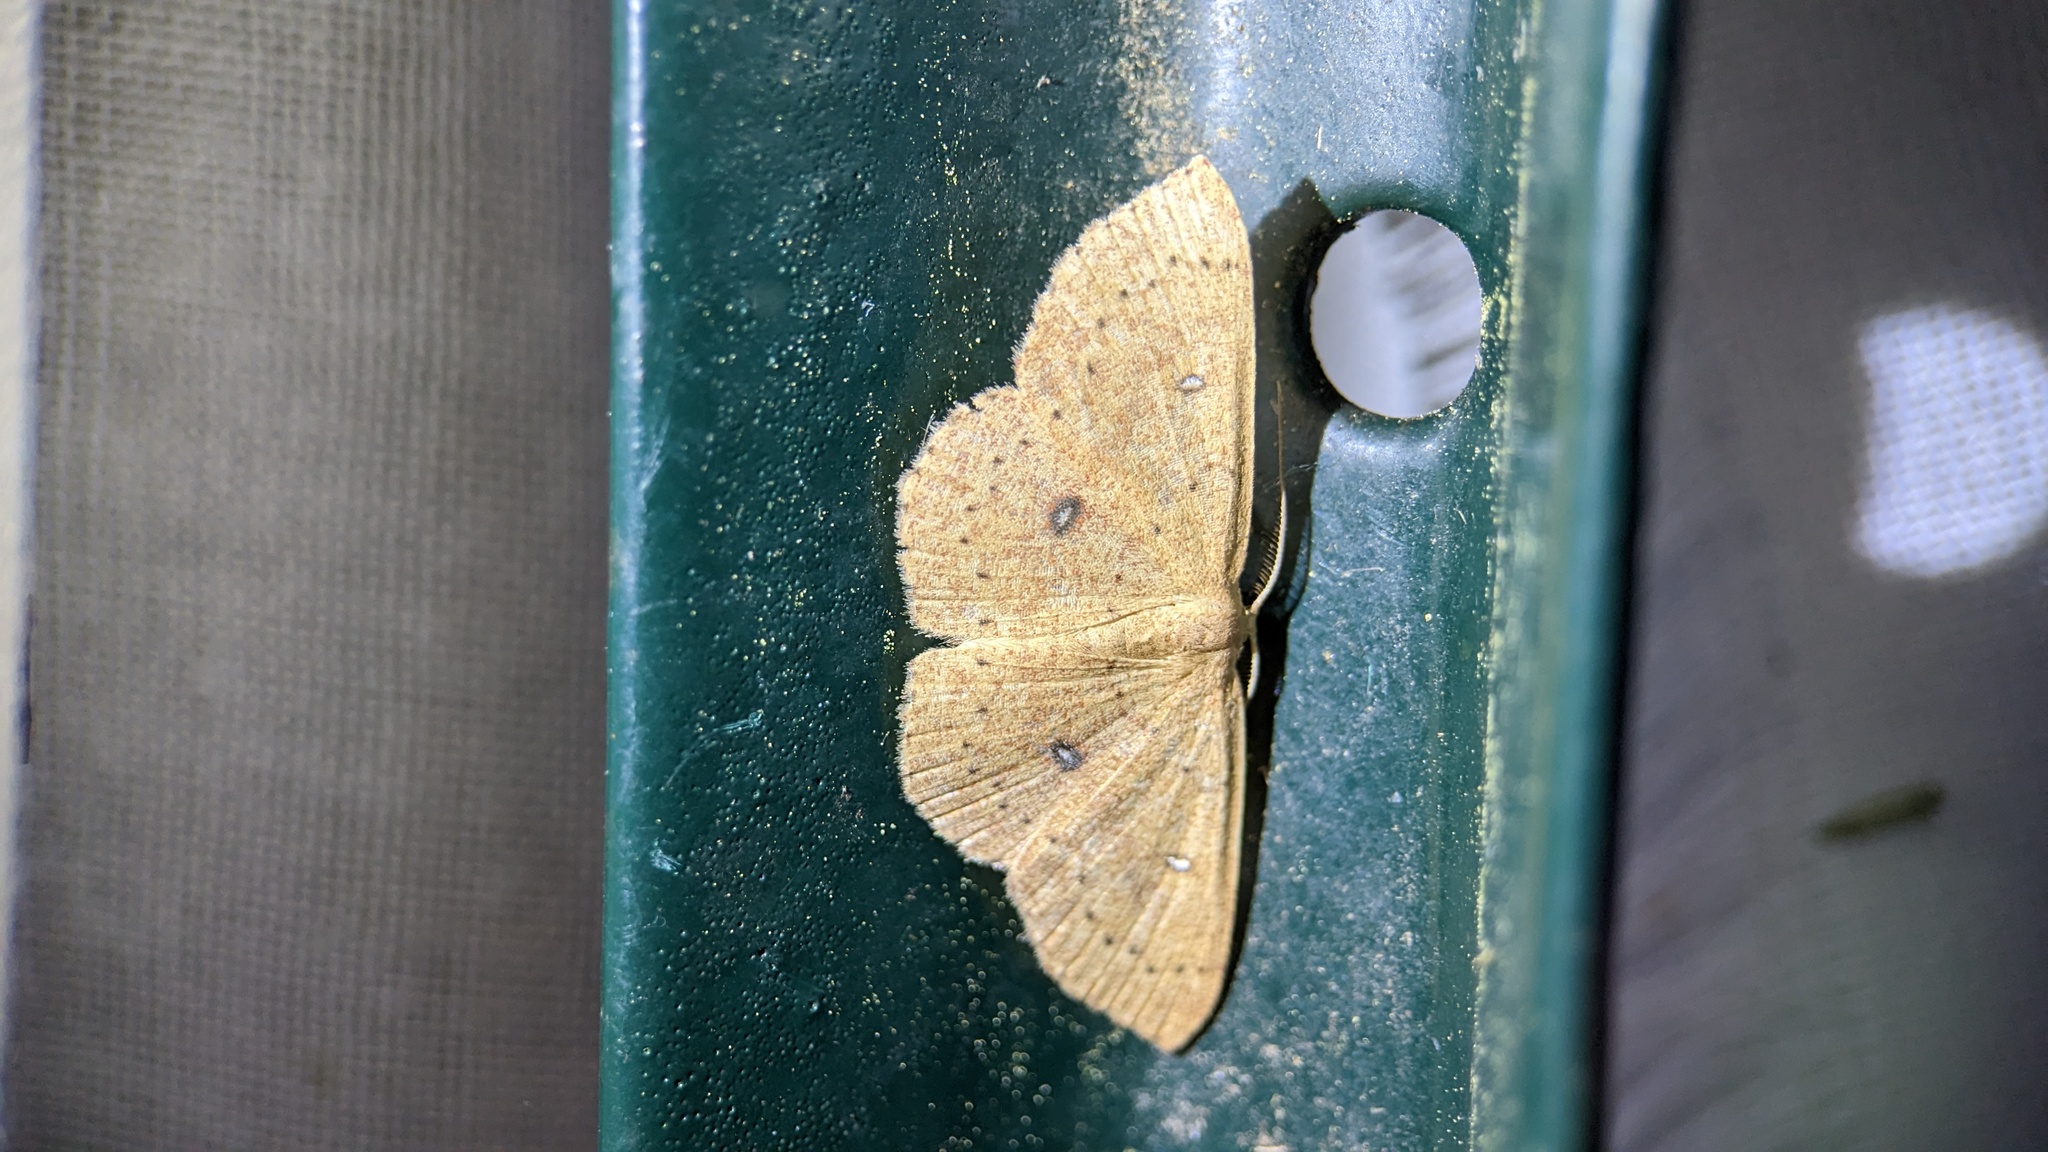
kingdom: Animalia
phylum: Arthropoda
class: Insecta
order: Lepidoptera
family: Geometridae
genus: Cyclophora
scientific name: Cyclophora packardi
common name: Packard's wave
